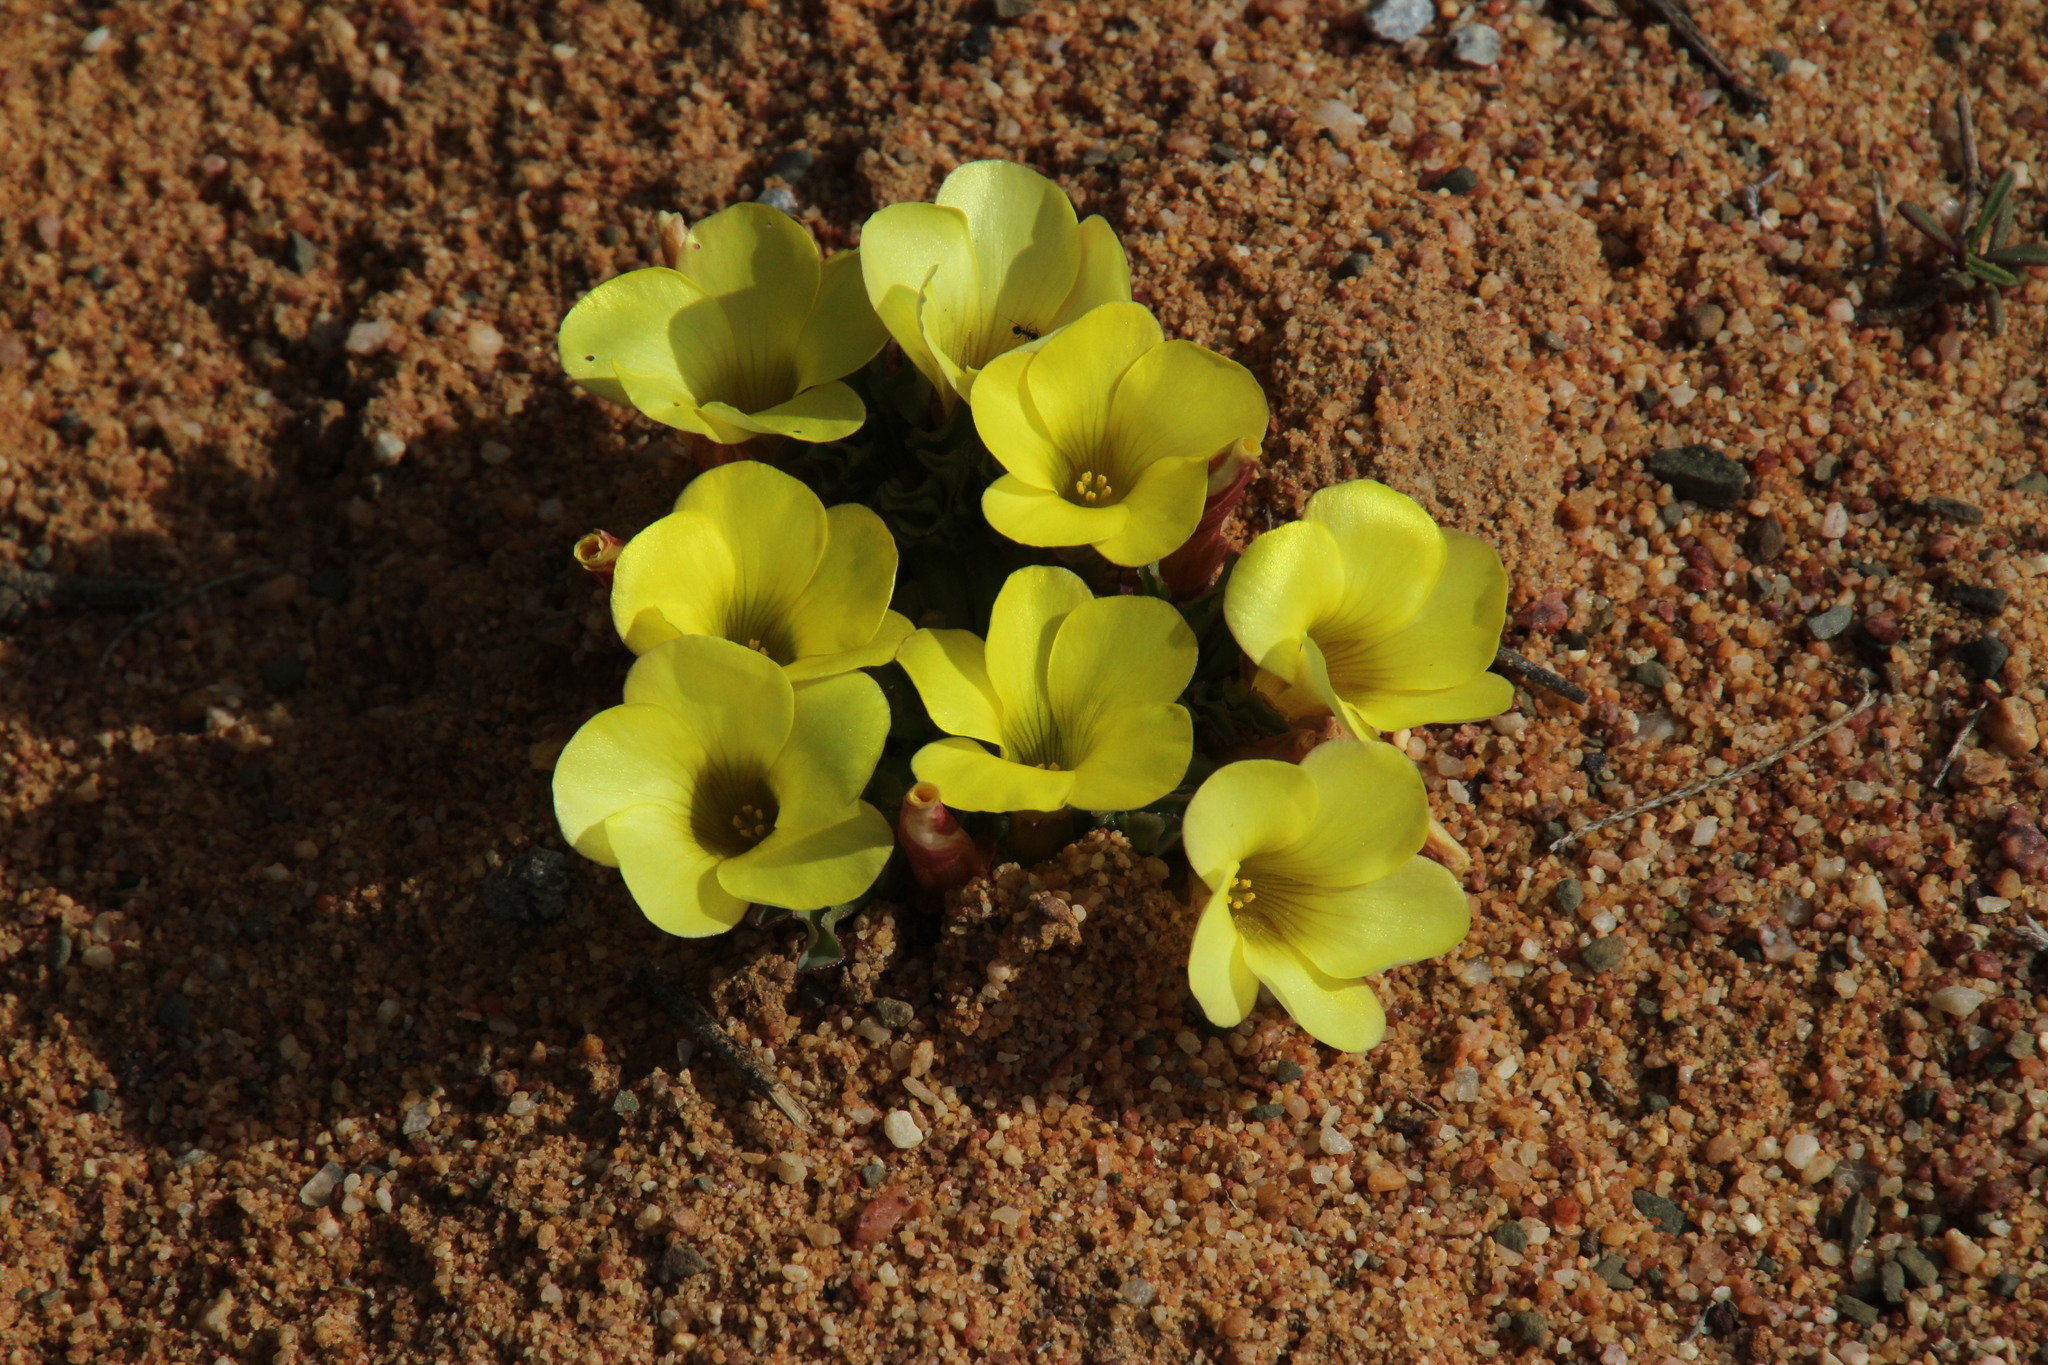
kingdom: Plantae
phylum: Tracheophyta
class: Magnoliopsida
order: Oxalidales
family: Oxalidaceae
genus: Oxalis
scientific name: Oxalis flava
